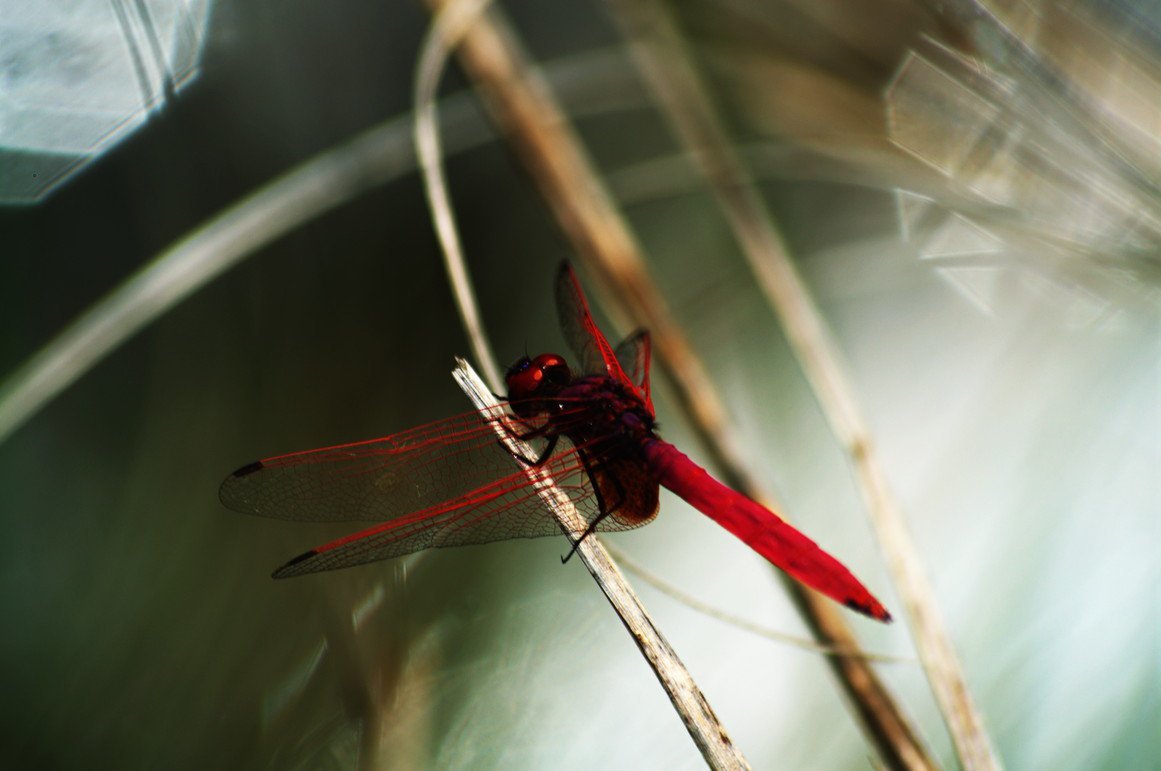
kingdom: Animalia
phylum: Arthropoda
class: Insecta
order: Odonata
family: Libellulidae
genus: Trithemis
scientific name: Trithemis aurora
